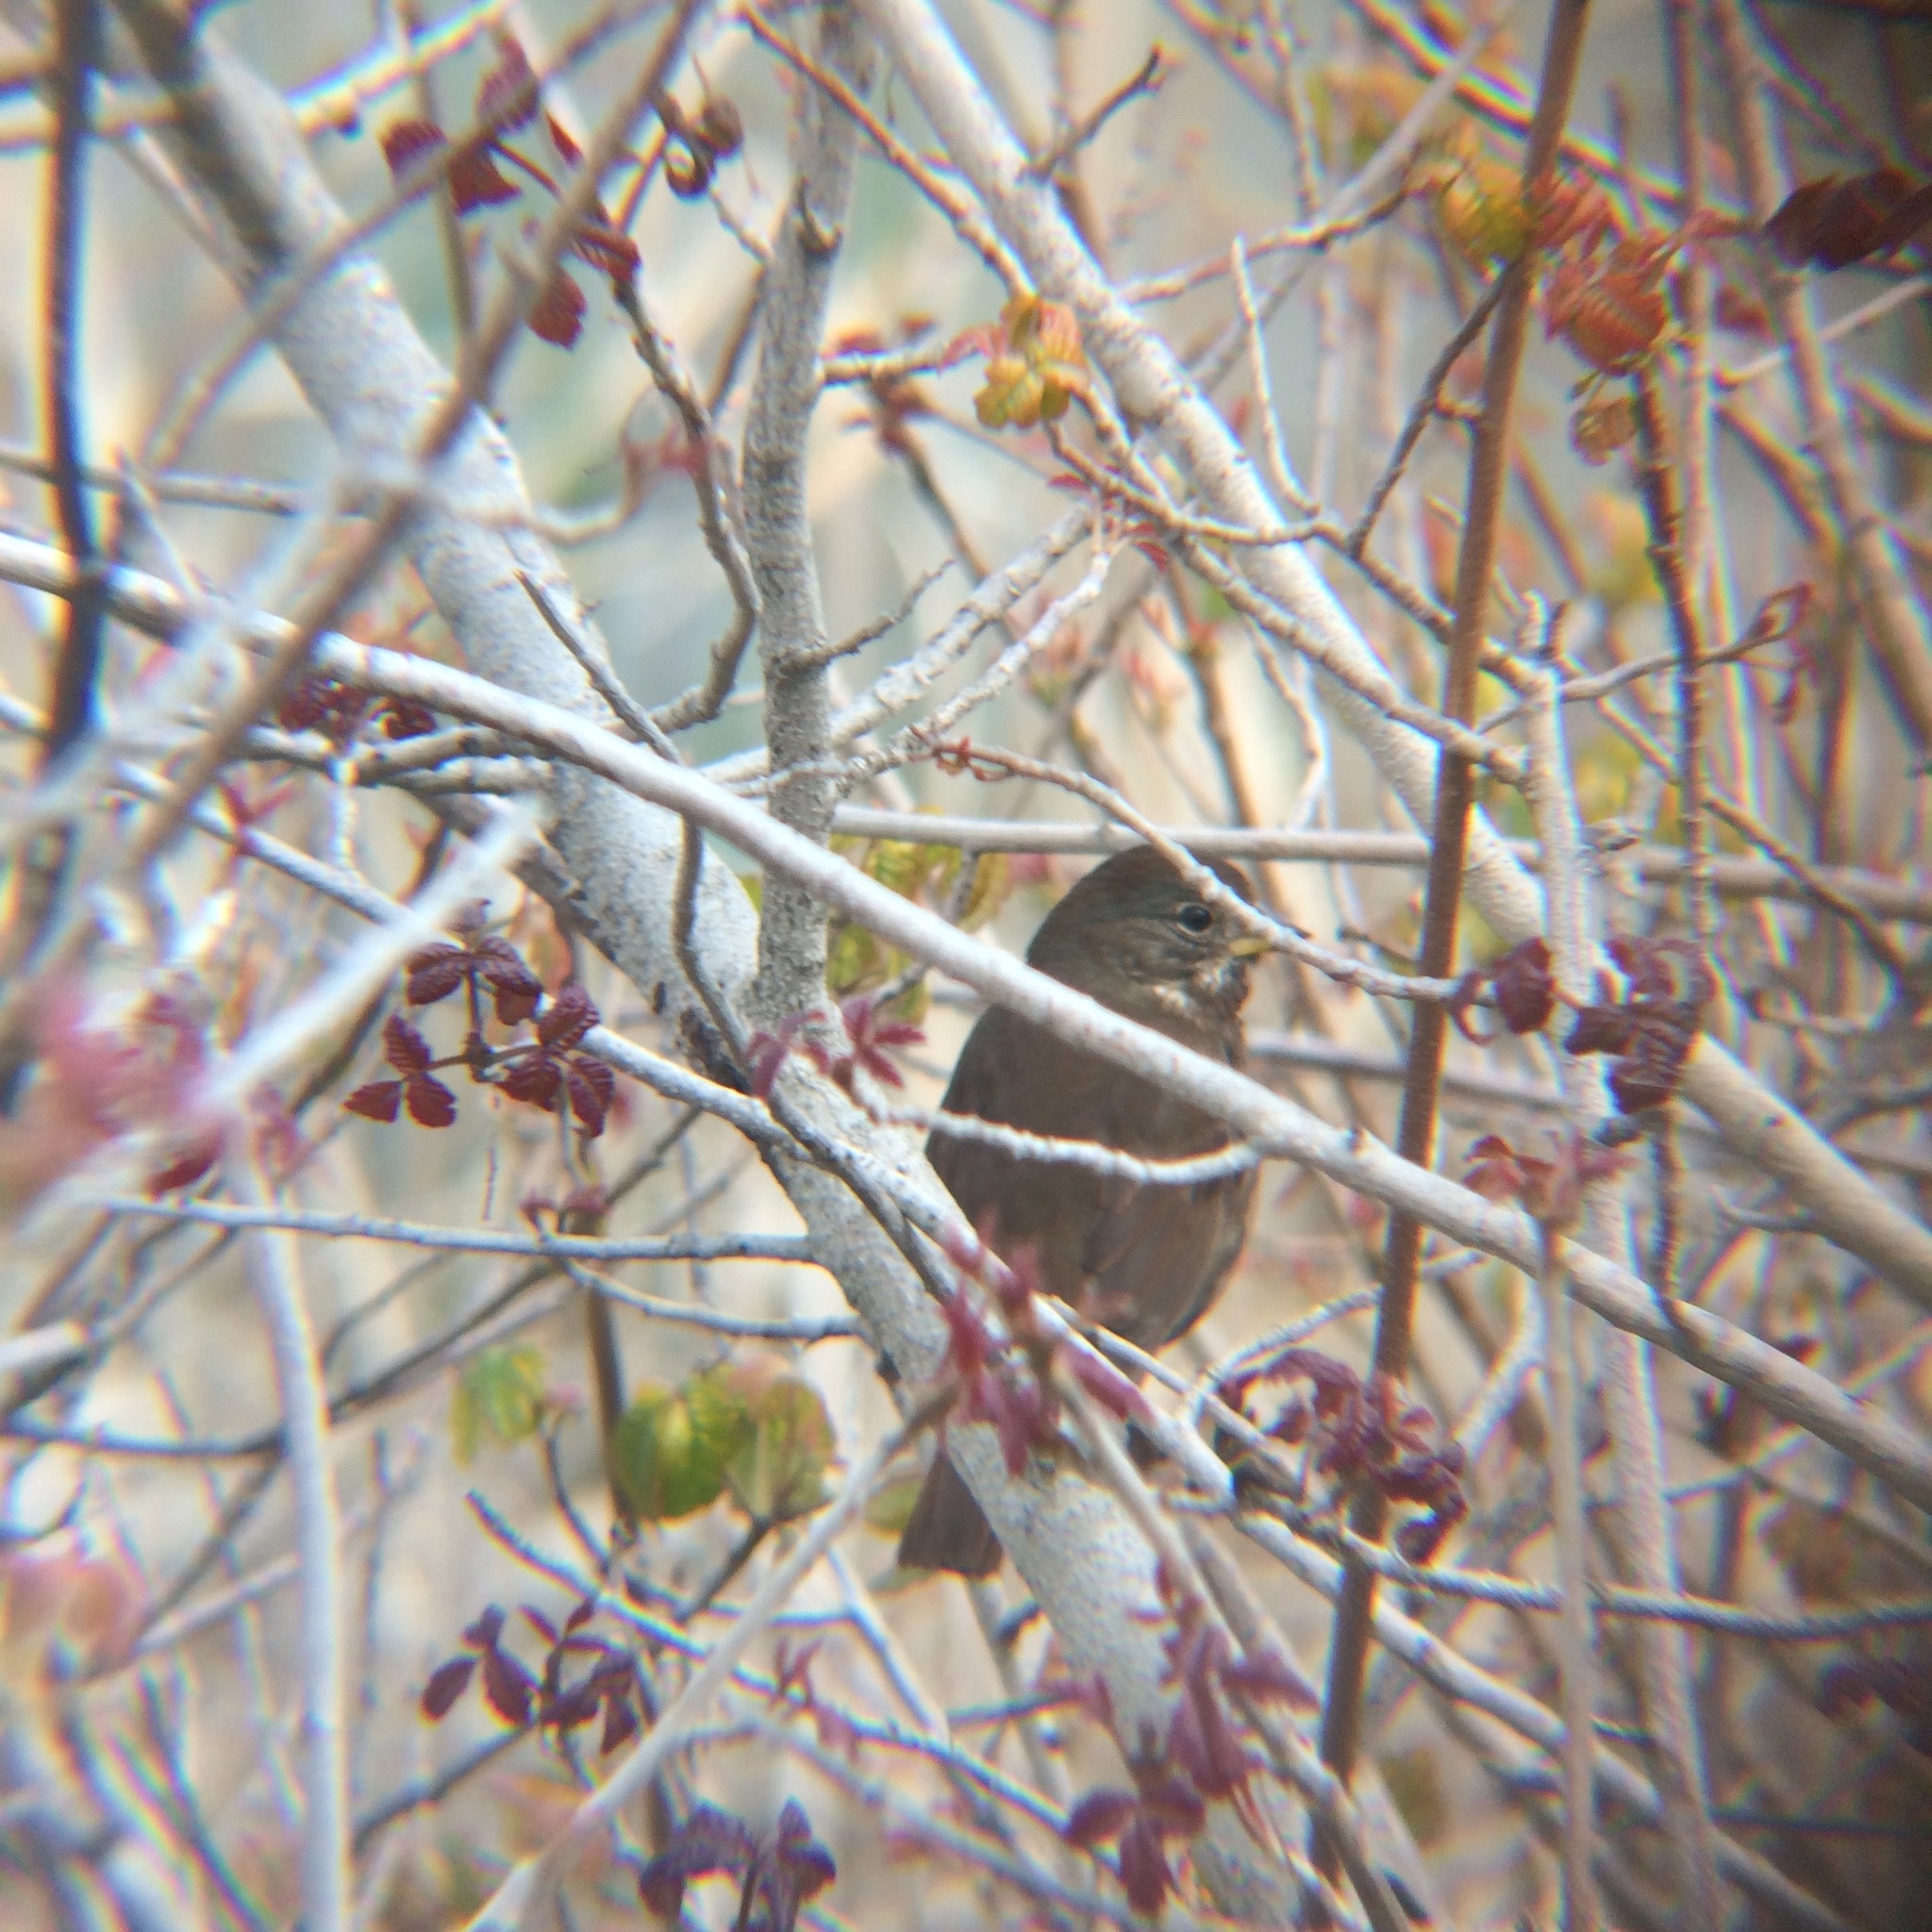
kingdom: Animalia
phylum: Chordata
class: Aves
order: Passeriformes
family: Passerellidae
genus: Passerella
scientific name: Passerella iliaca
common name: Fox sparrow
